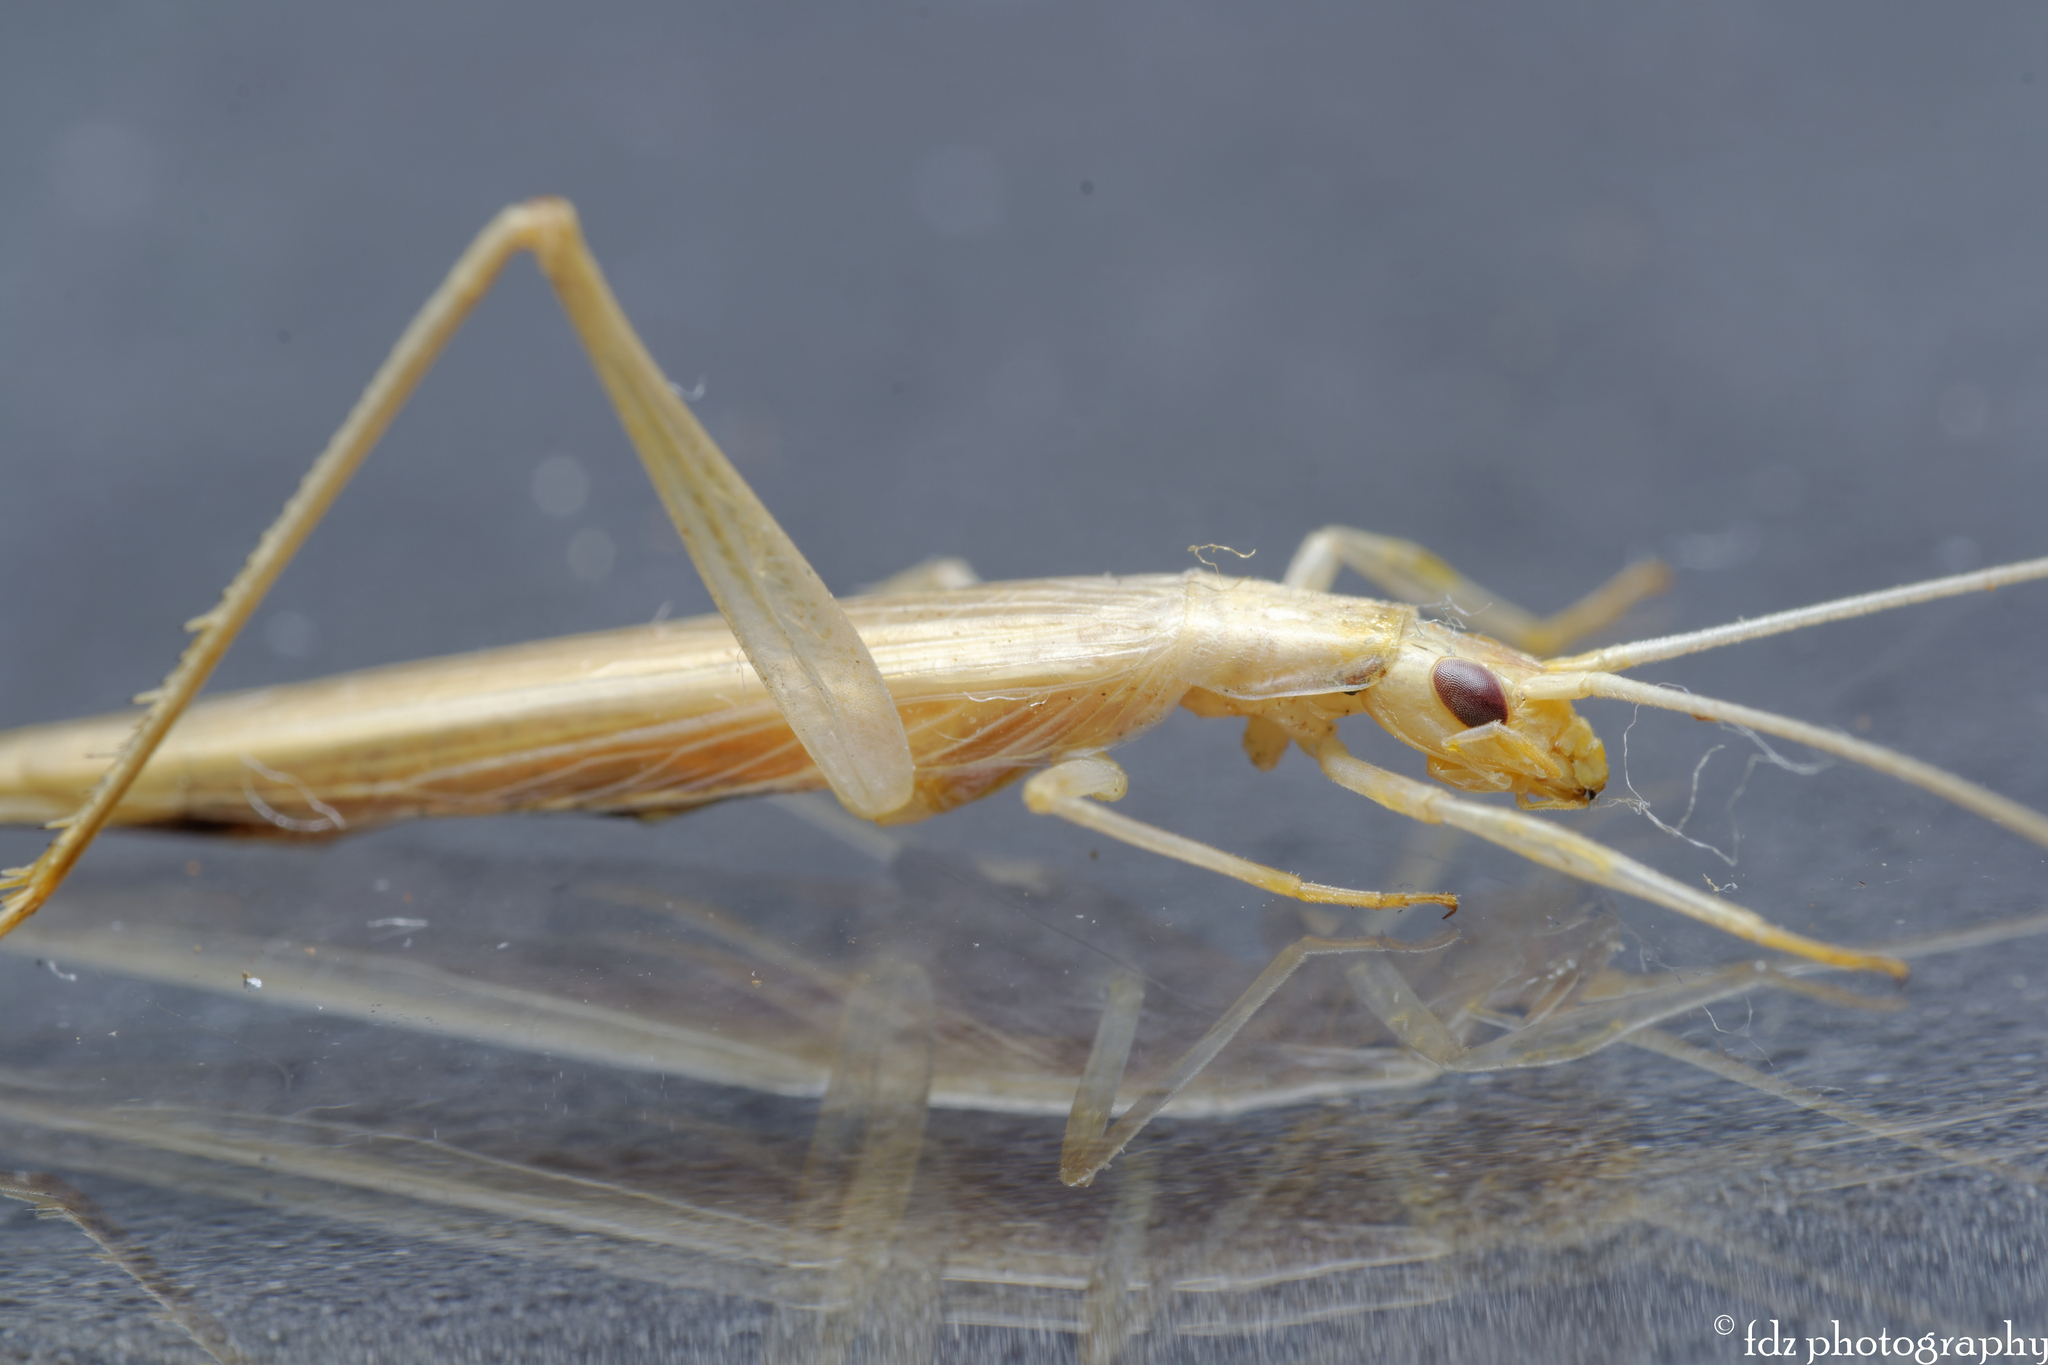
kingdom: Animalia
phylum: Arthropoda
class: Insecta
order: Orthoptera
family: Gryllidae
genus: Oecanthus
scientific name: Oecanthus dulcisonans
